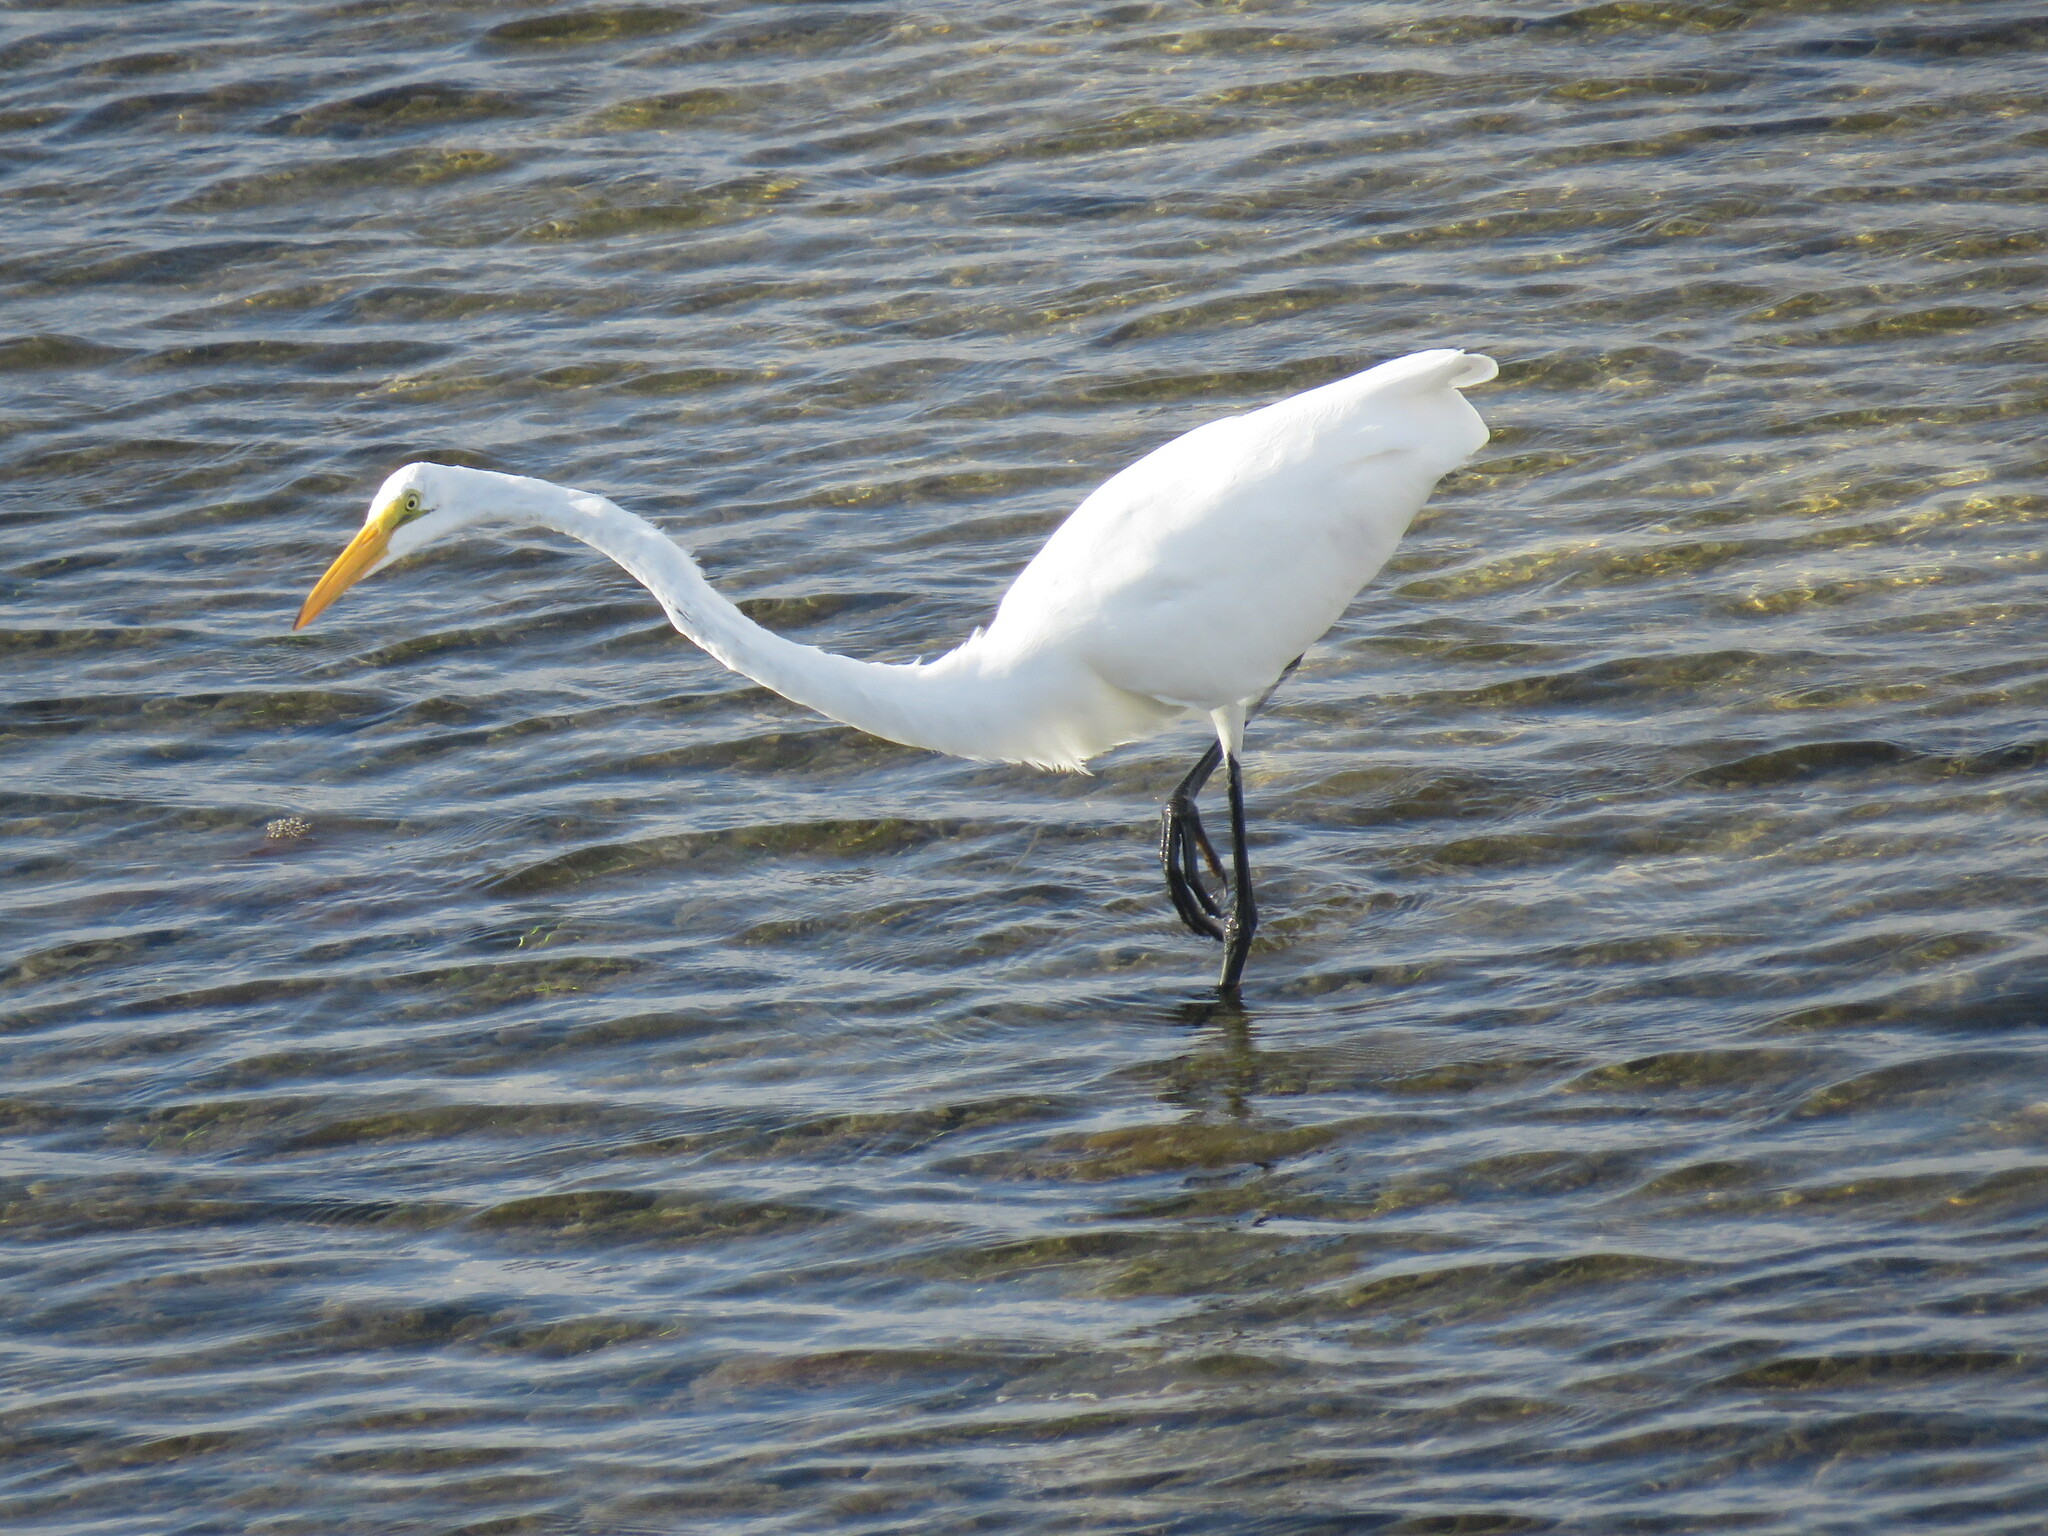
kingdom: Animalia
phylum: Chordata
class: Aves
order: Pelecaniformes
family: Ardeidae
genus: Ardea
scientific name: Ardea alba
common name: Great egret
